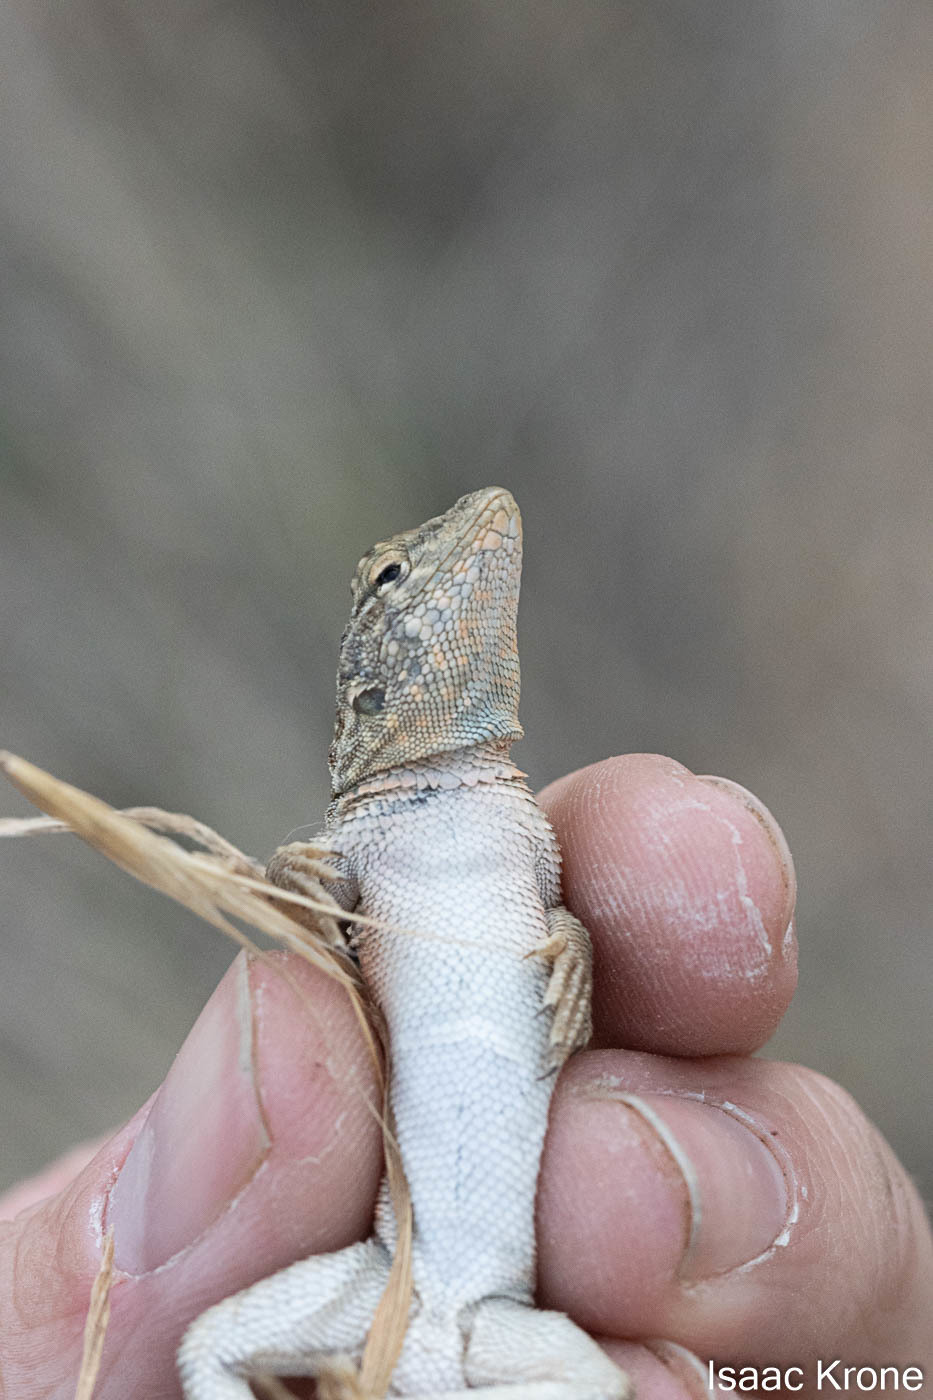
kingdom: Animalia
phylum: Chordata
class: Squamata
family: Phrynosomatidae
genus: Uta
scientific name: Uta stansburiana
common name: Side-blotched lizard
